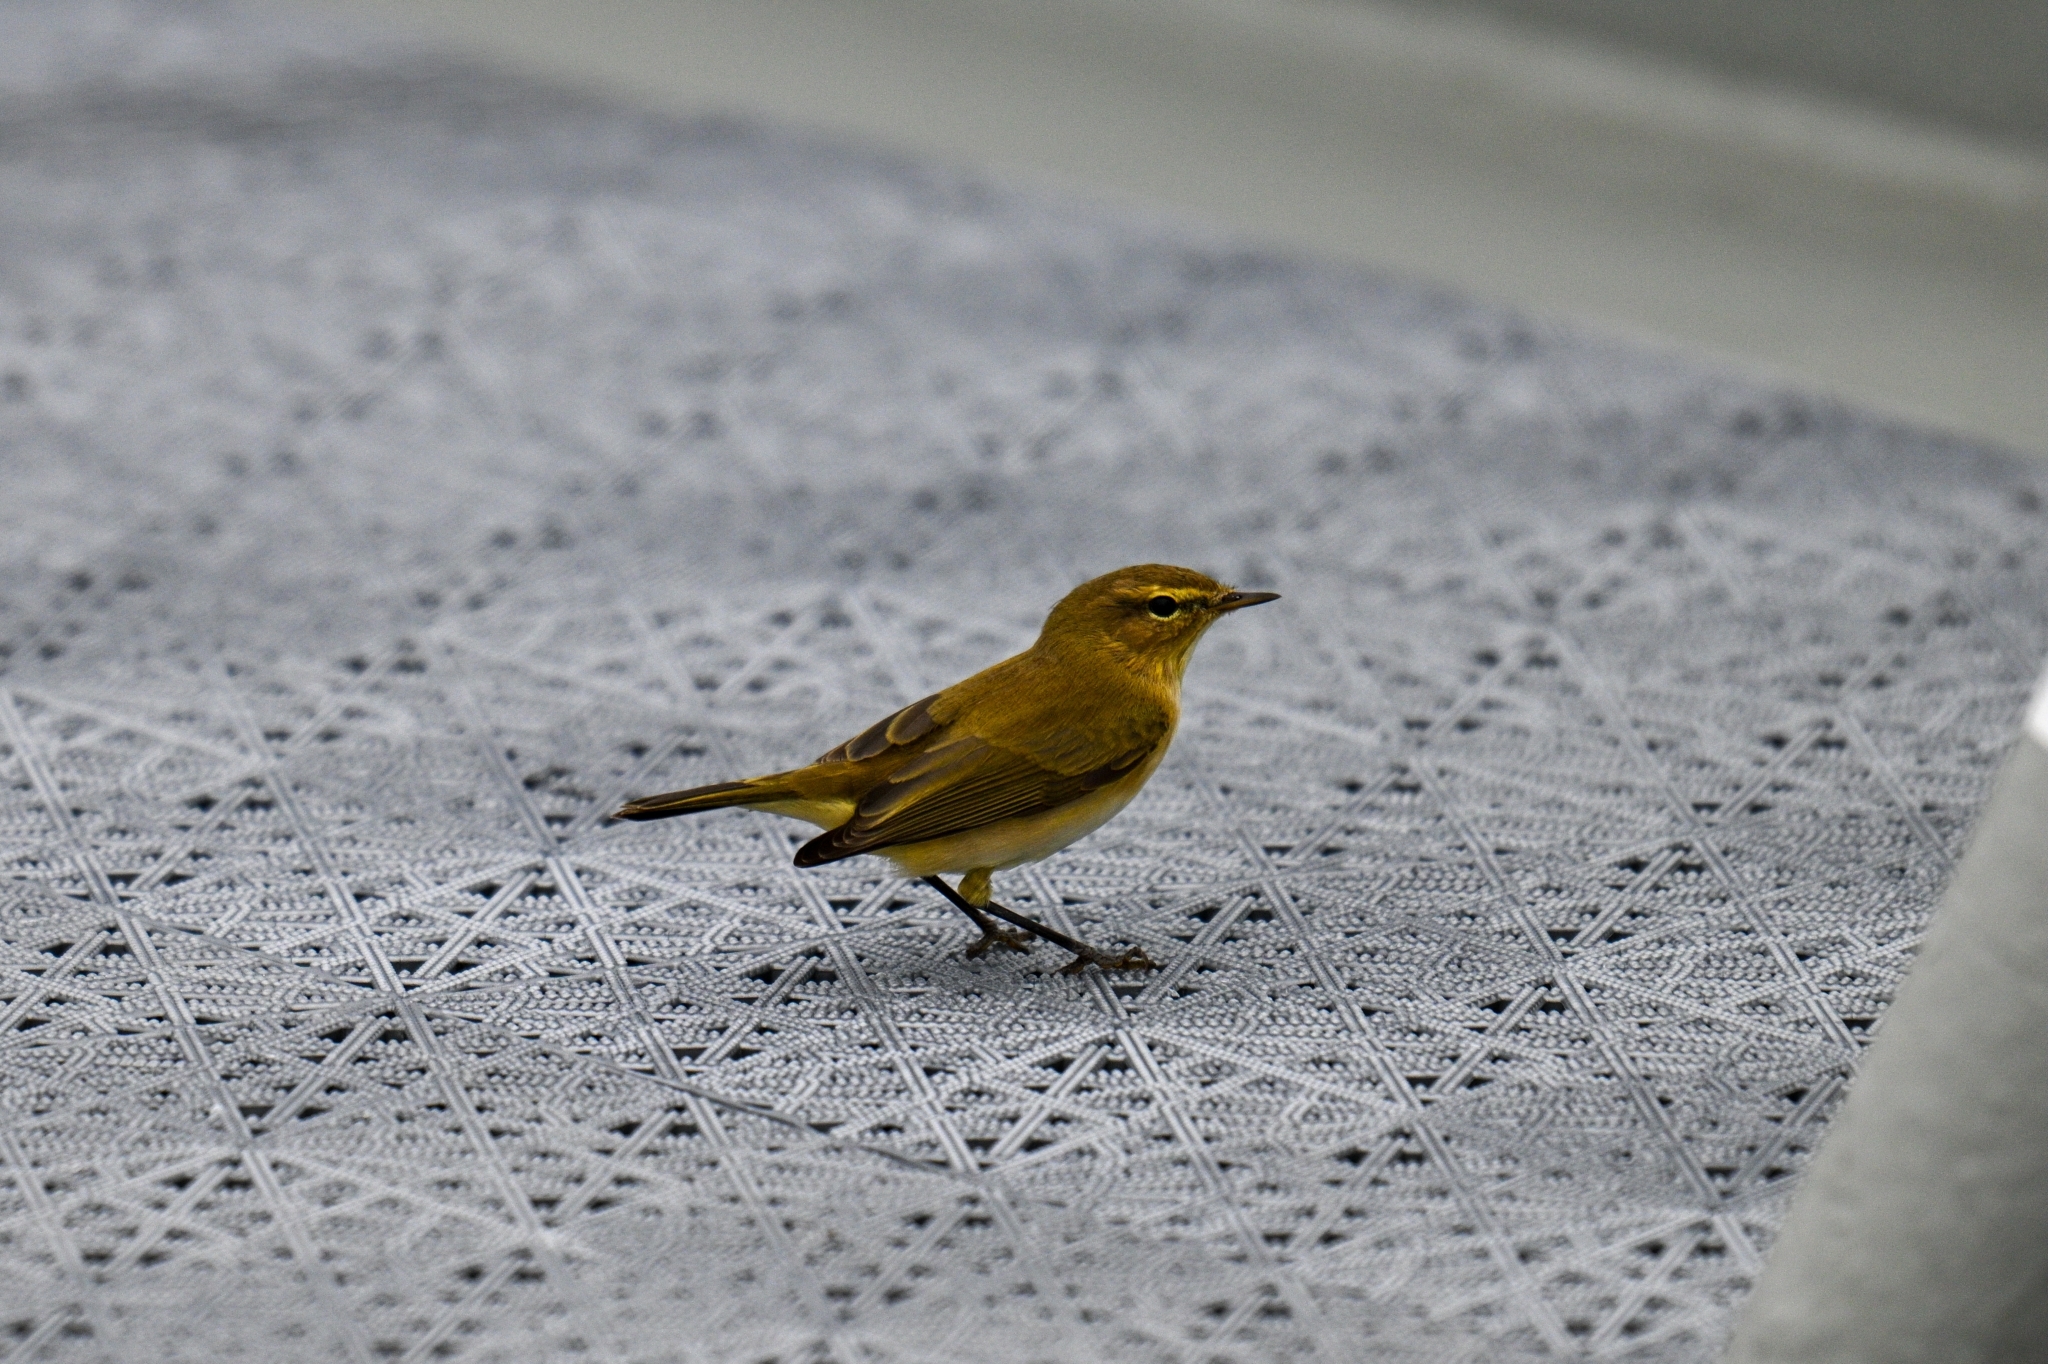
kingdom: Animalia
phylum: Chordata
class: Aves
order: Passeriformes
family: Phylloscopidae
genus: Phylloscopus
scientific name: Phylloscopus collybita
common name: Common chiffchaff
